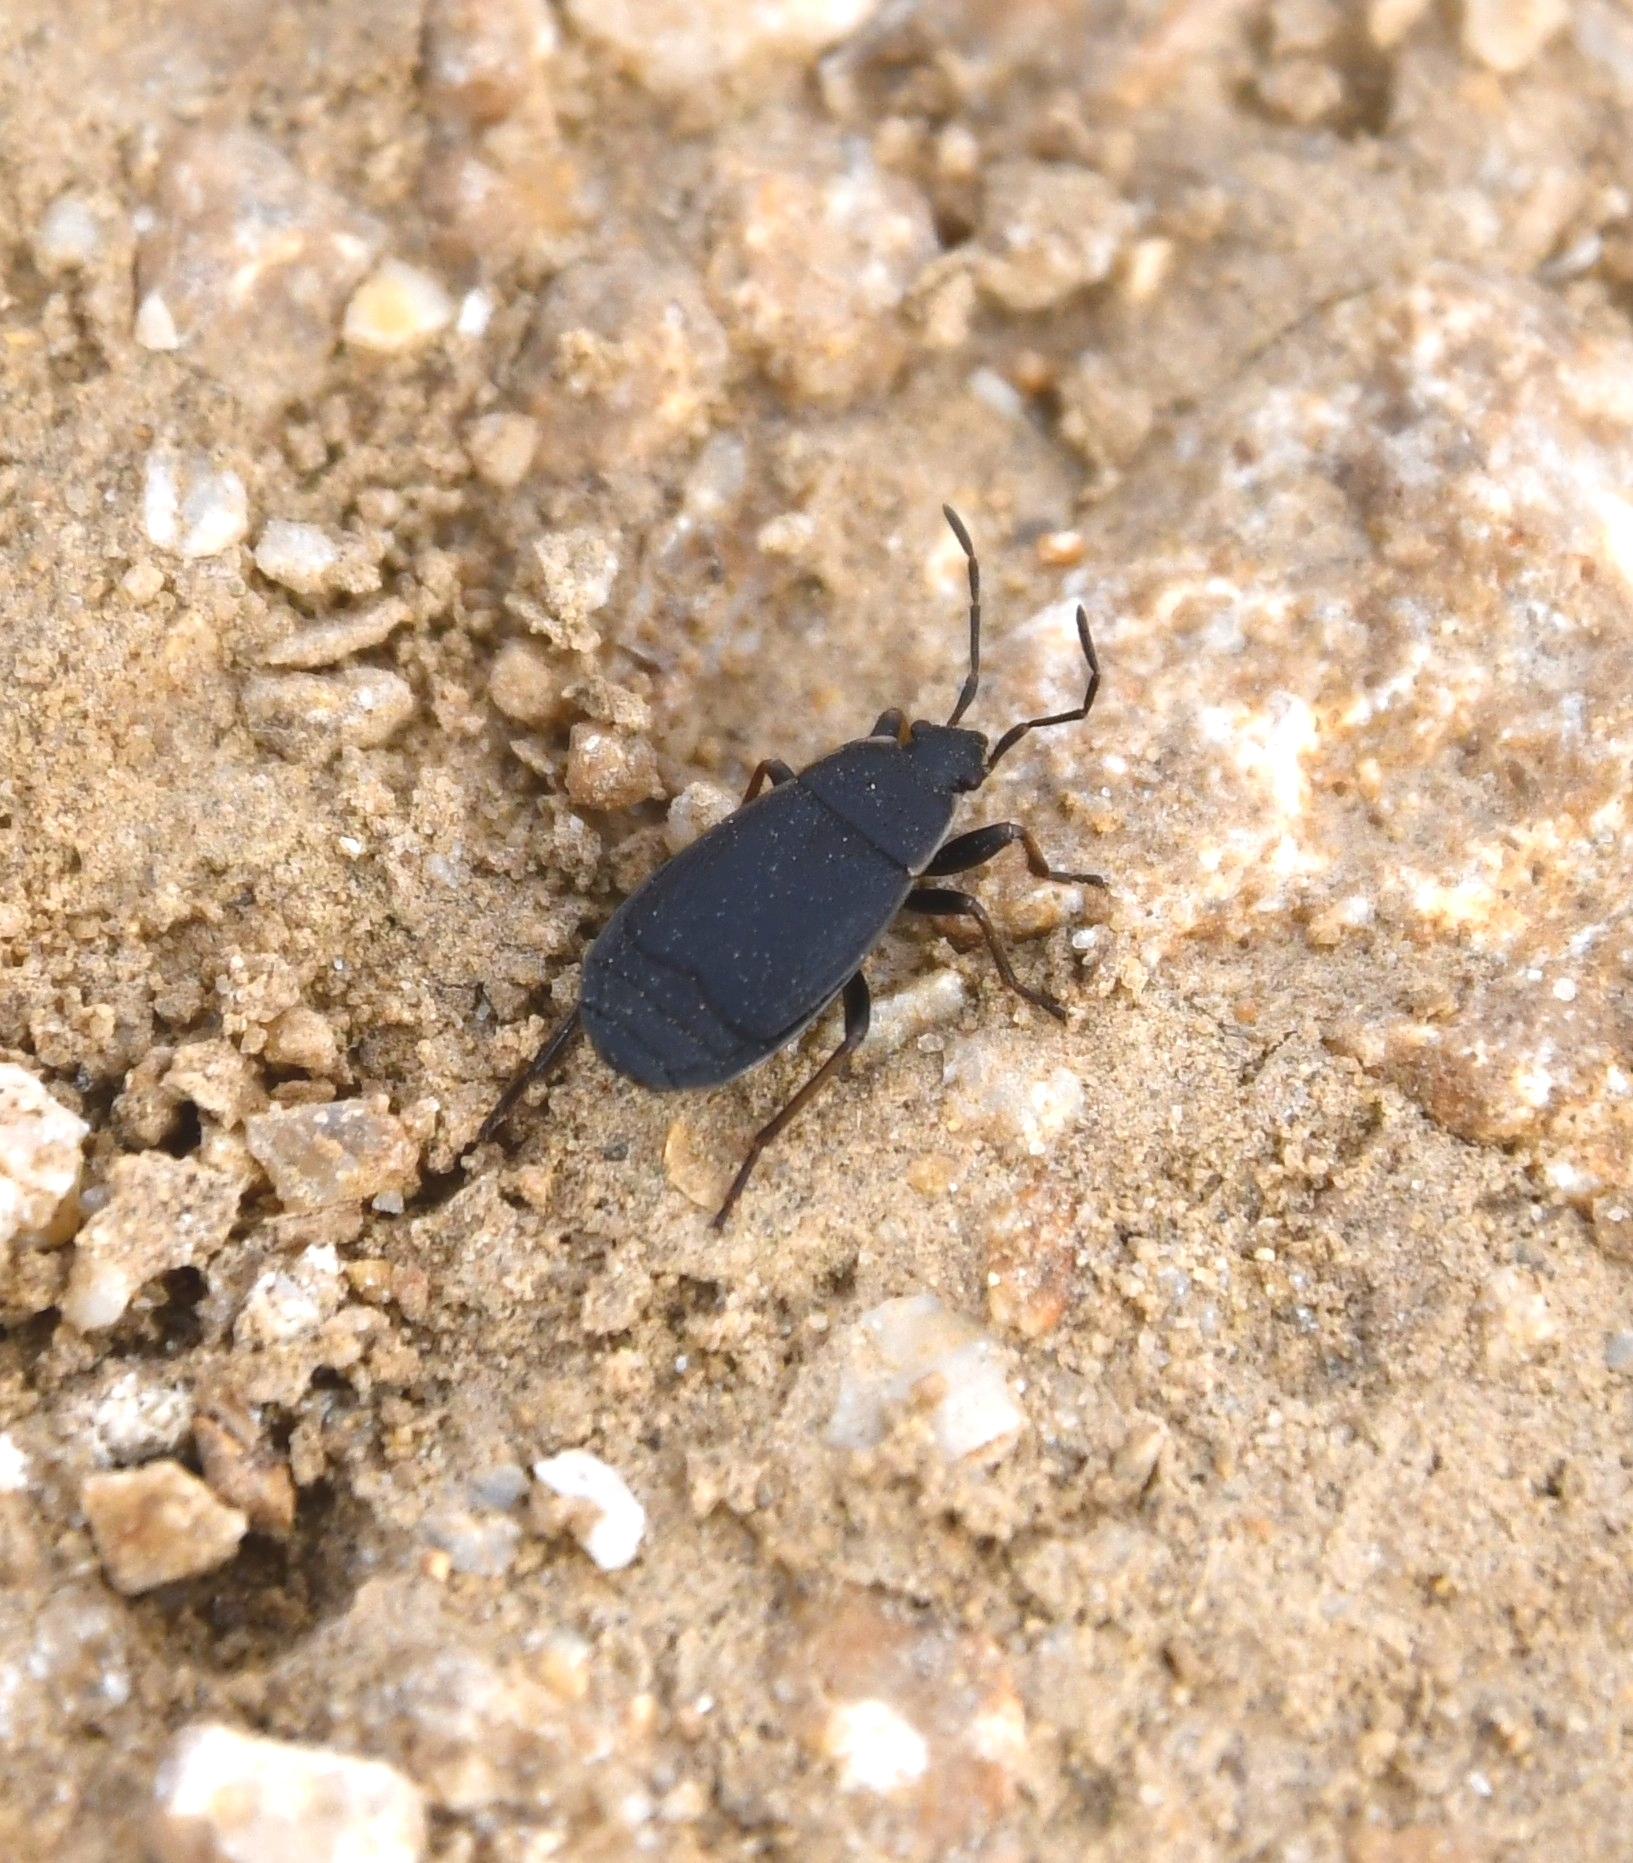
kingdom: Animalia
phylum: Arthropoda
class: Insecta
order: Hemiptera
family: Pyrrhocoridae
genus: Pyrrhocoris
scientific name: Pyrrhocoris marginatus
